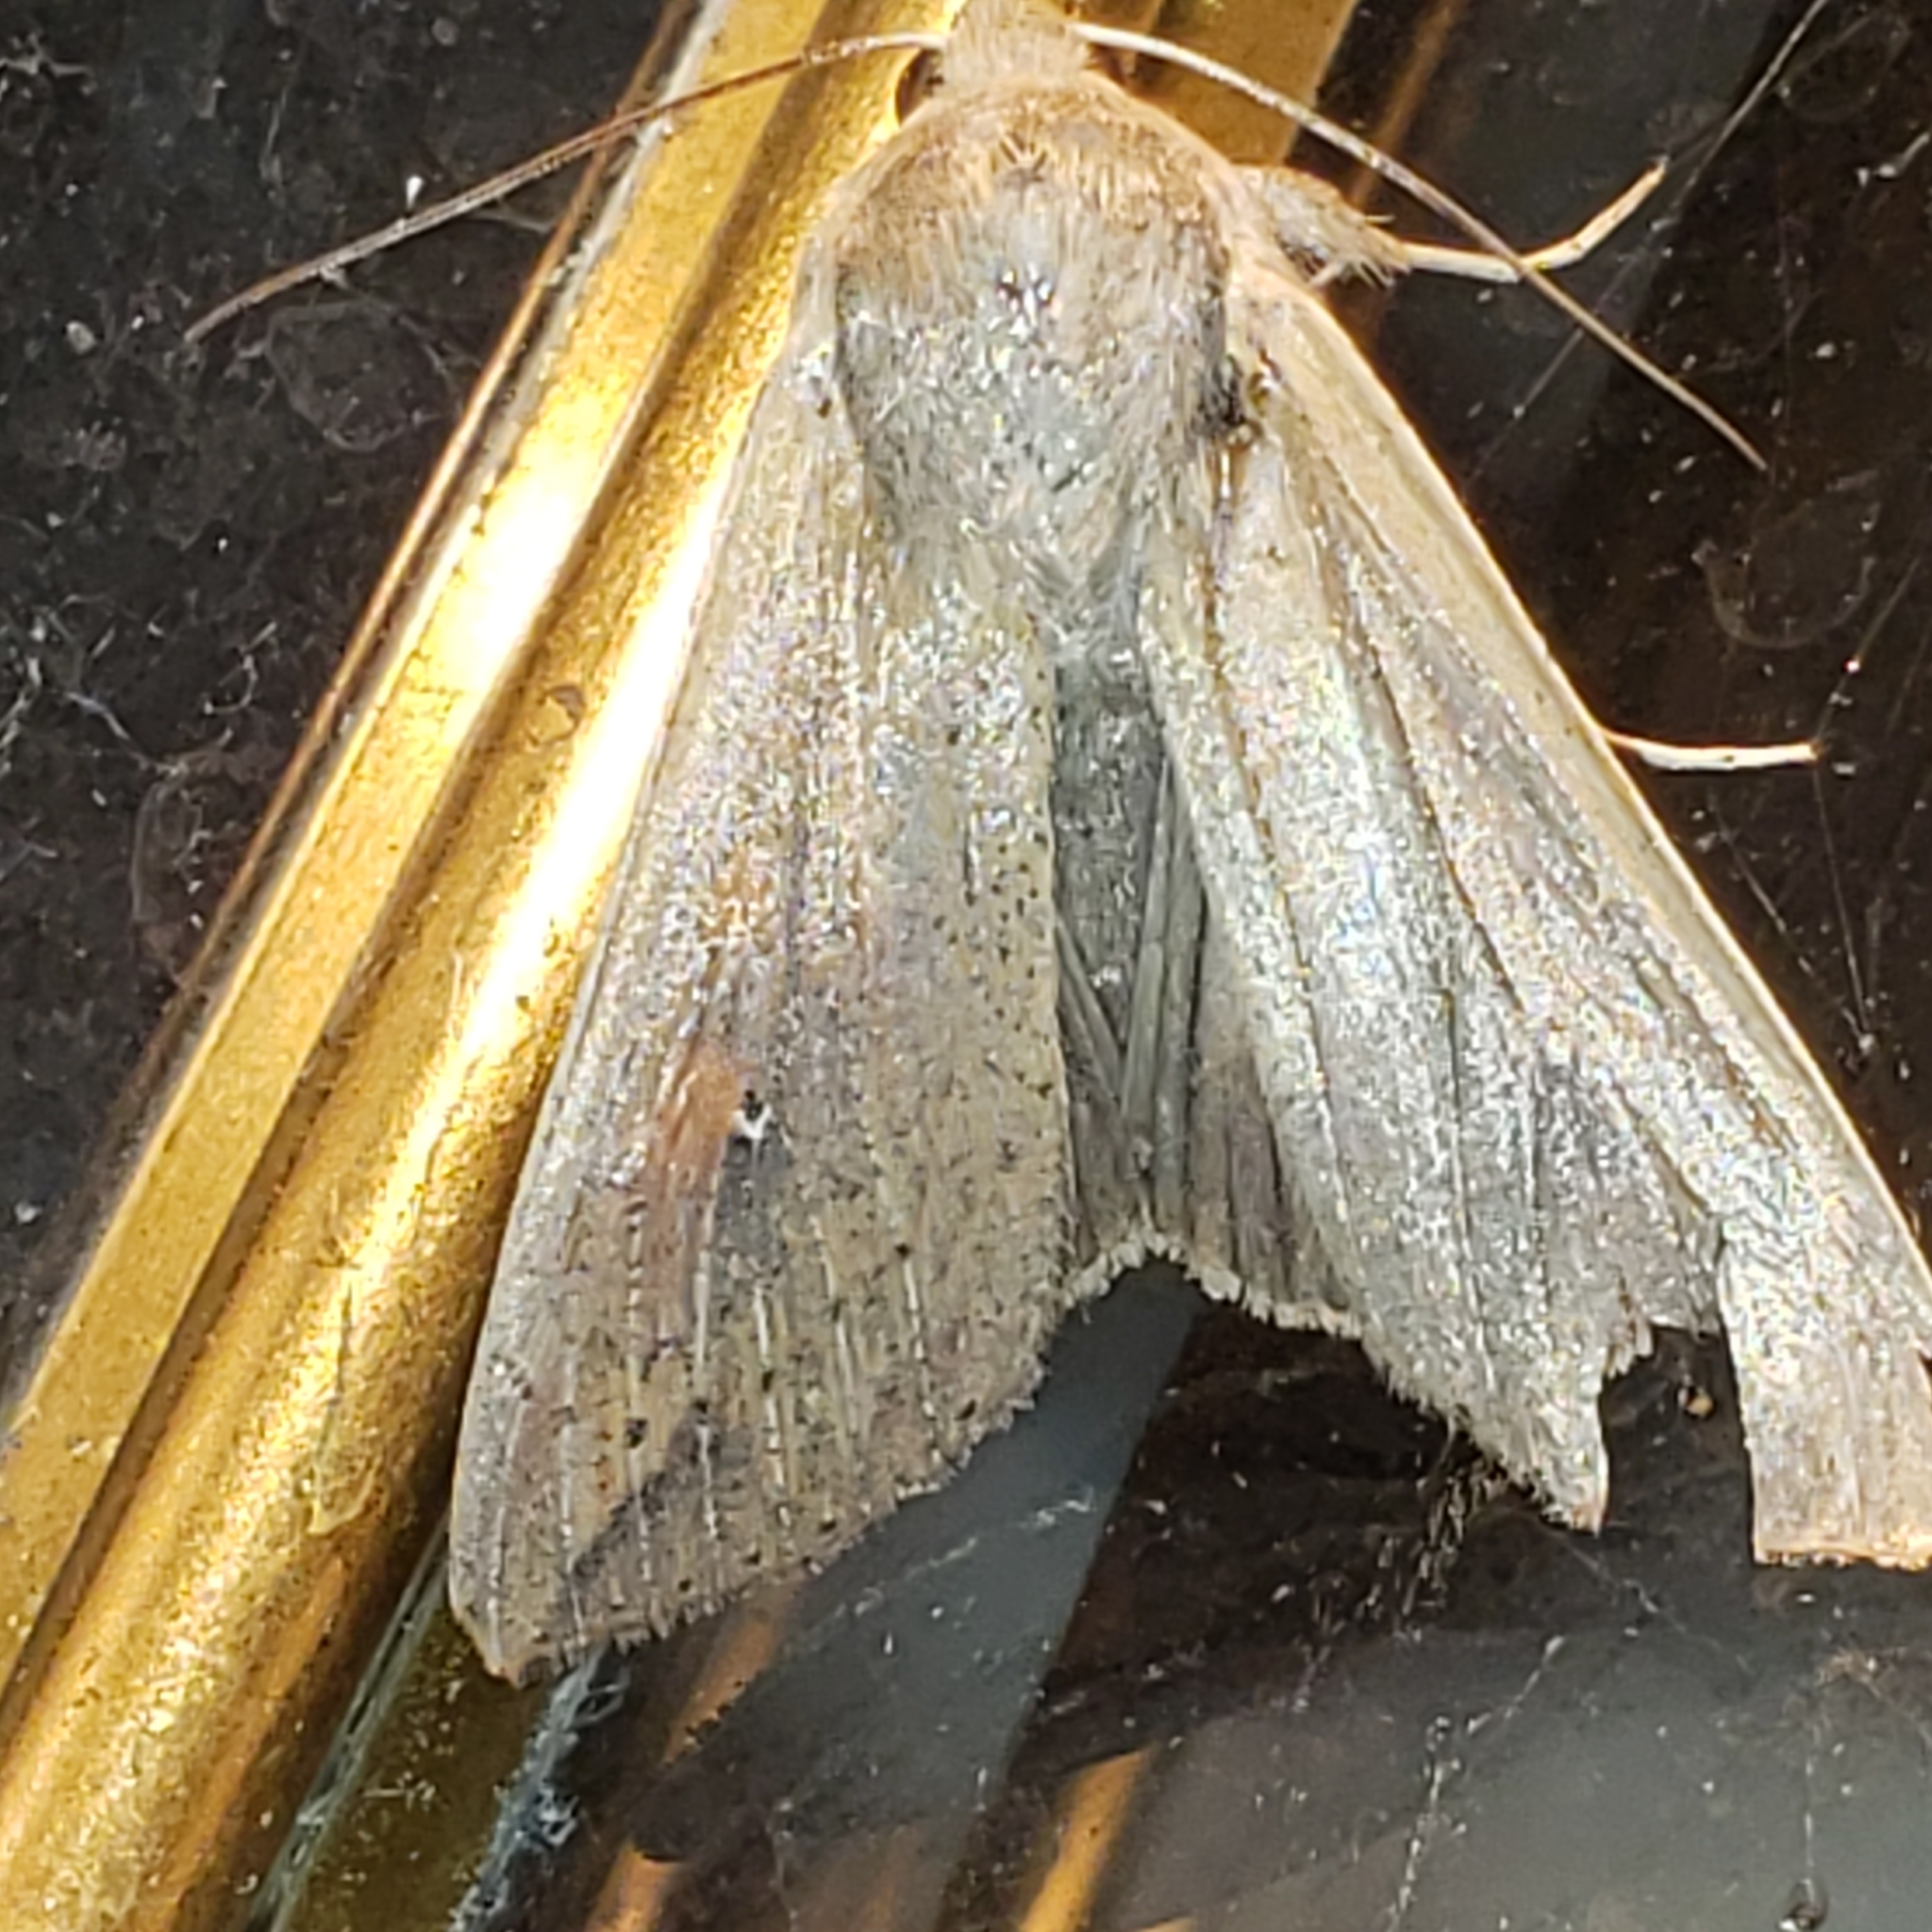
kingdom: Animalia
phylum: Arthropoda
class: Insecta
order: Lepidoptera
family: Noctuidae
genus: Mythimna
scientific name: Mythimna unipuncta
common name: White-speck
